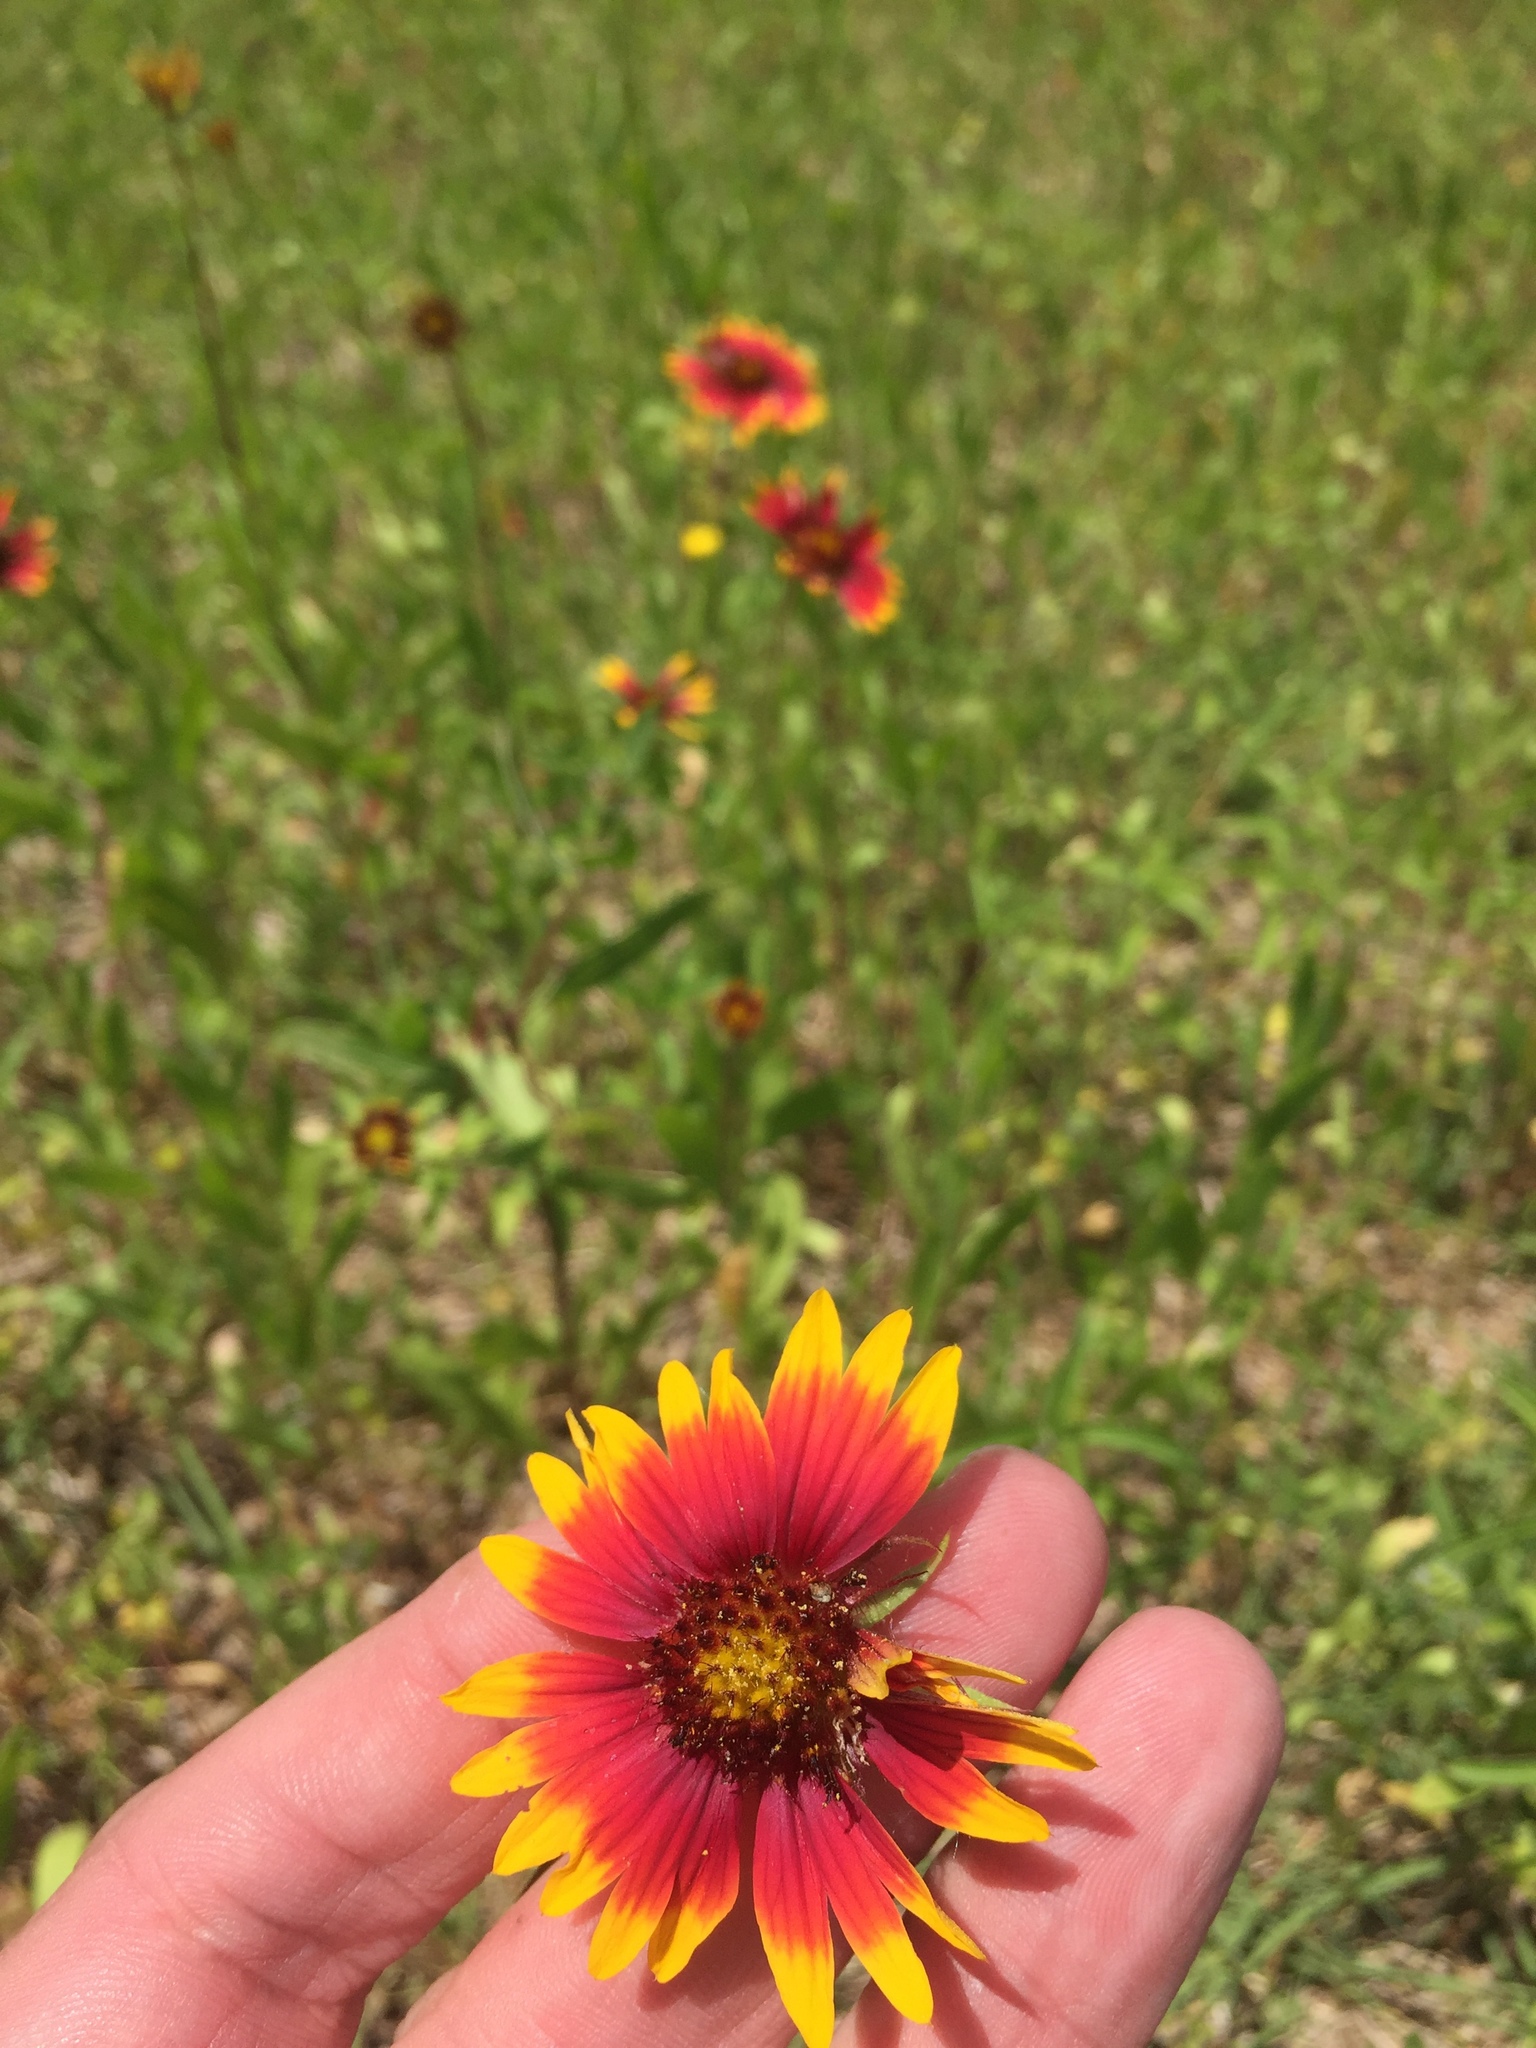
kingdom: Plantae
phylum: Tracheophyta
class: Magnoliopsida
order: Asterales
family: Asteraceae
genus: Gaillardia
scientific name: Gaillardia pulchella
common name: Firewheel
